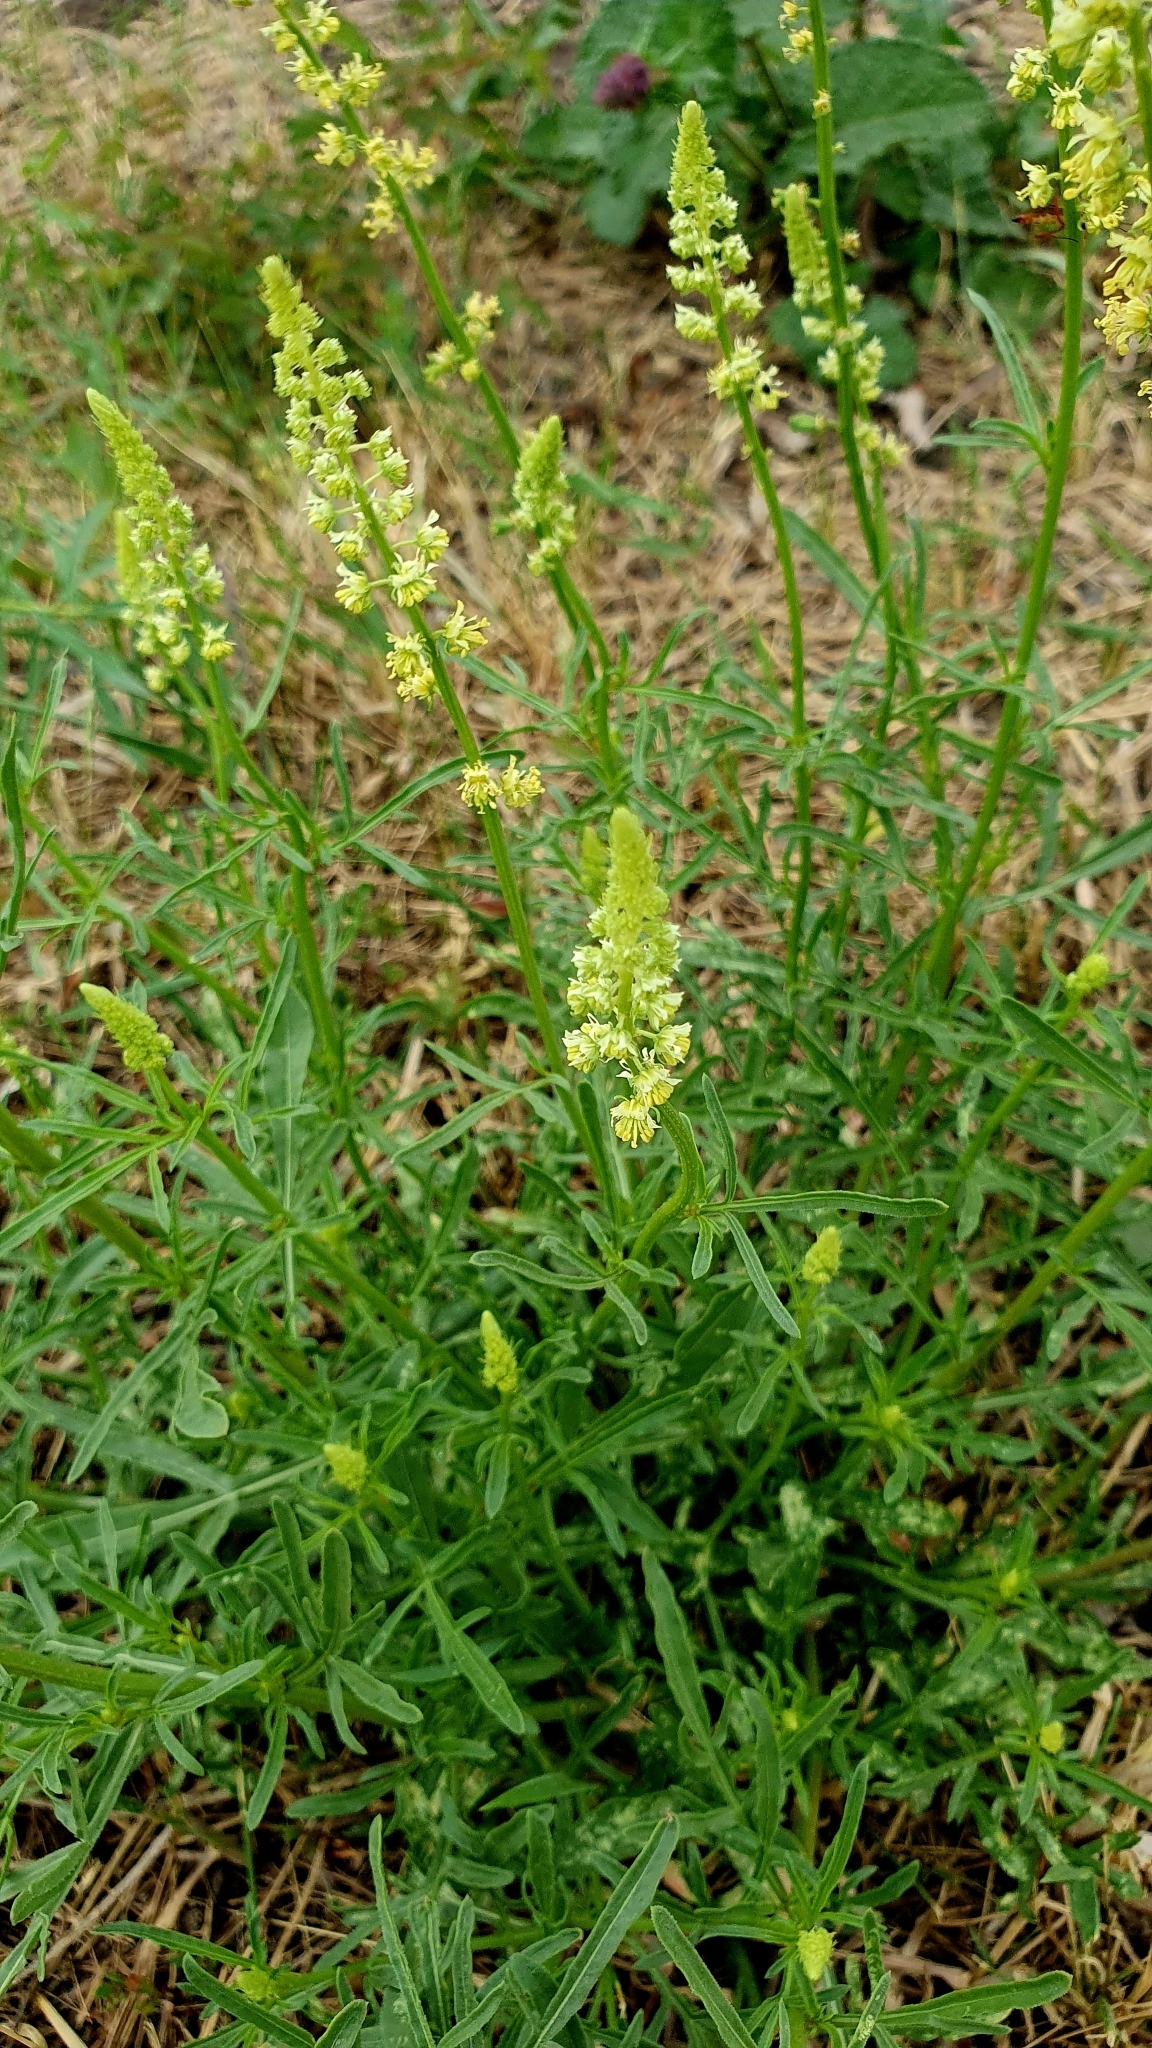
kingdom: Plantae
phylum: Tracheophyta
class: Magnoliopsida
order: Brassicales
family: Resedaceae
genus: Reseda
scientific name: Reseda lutea
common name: Wild mignonette
